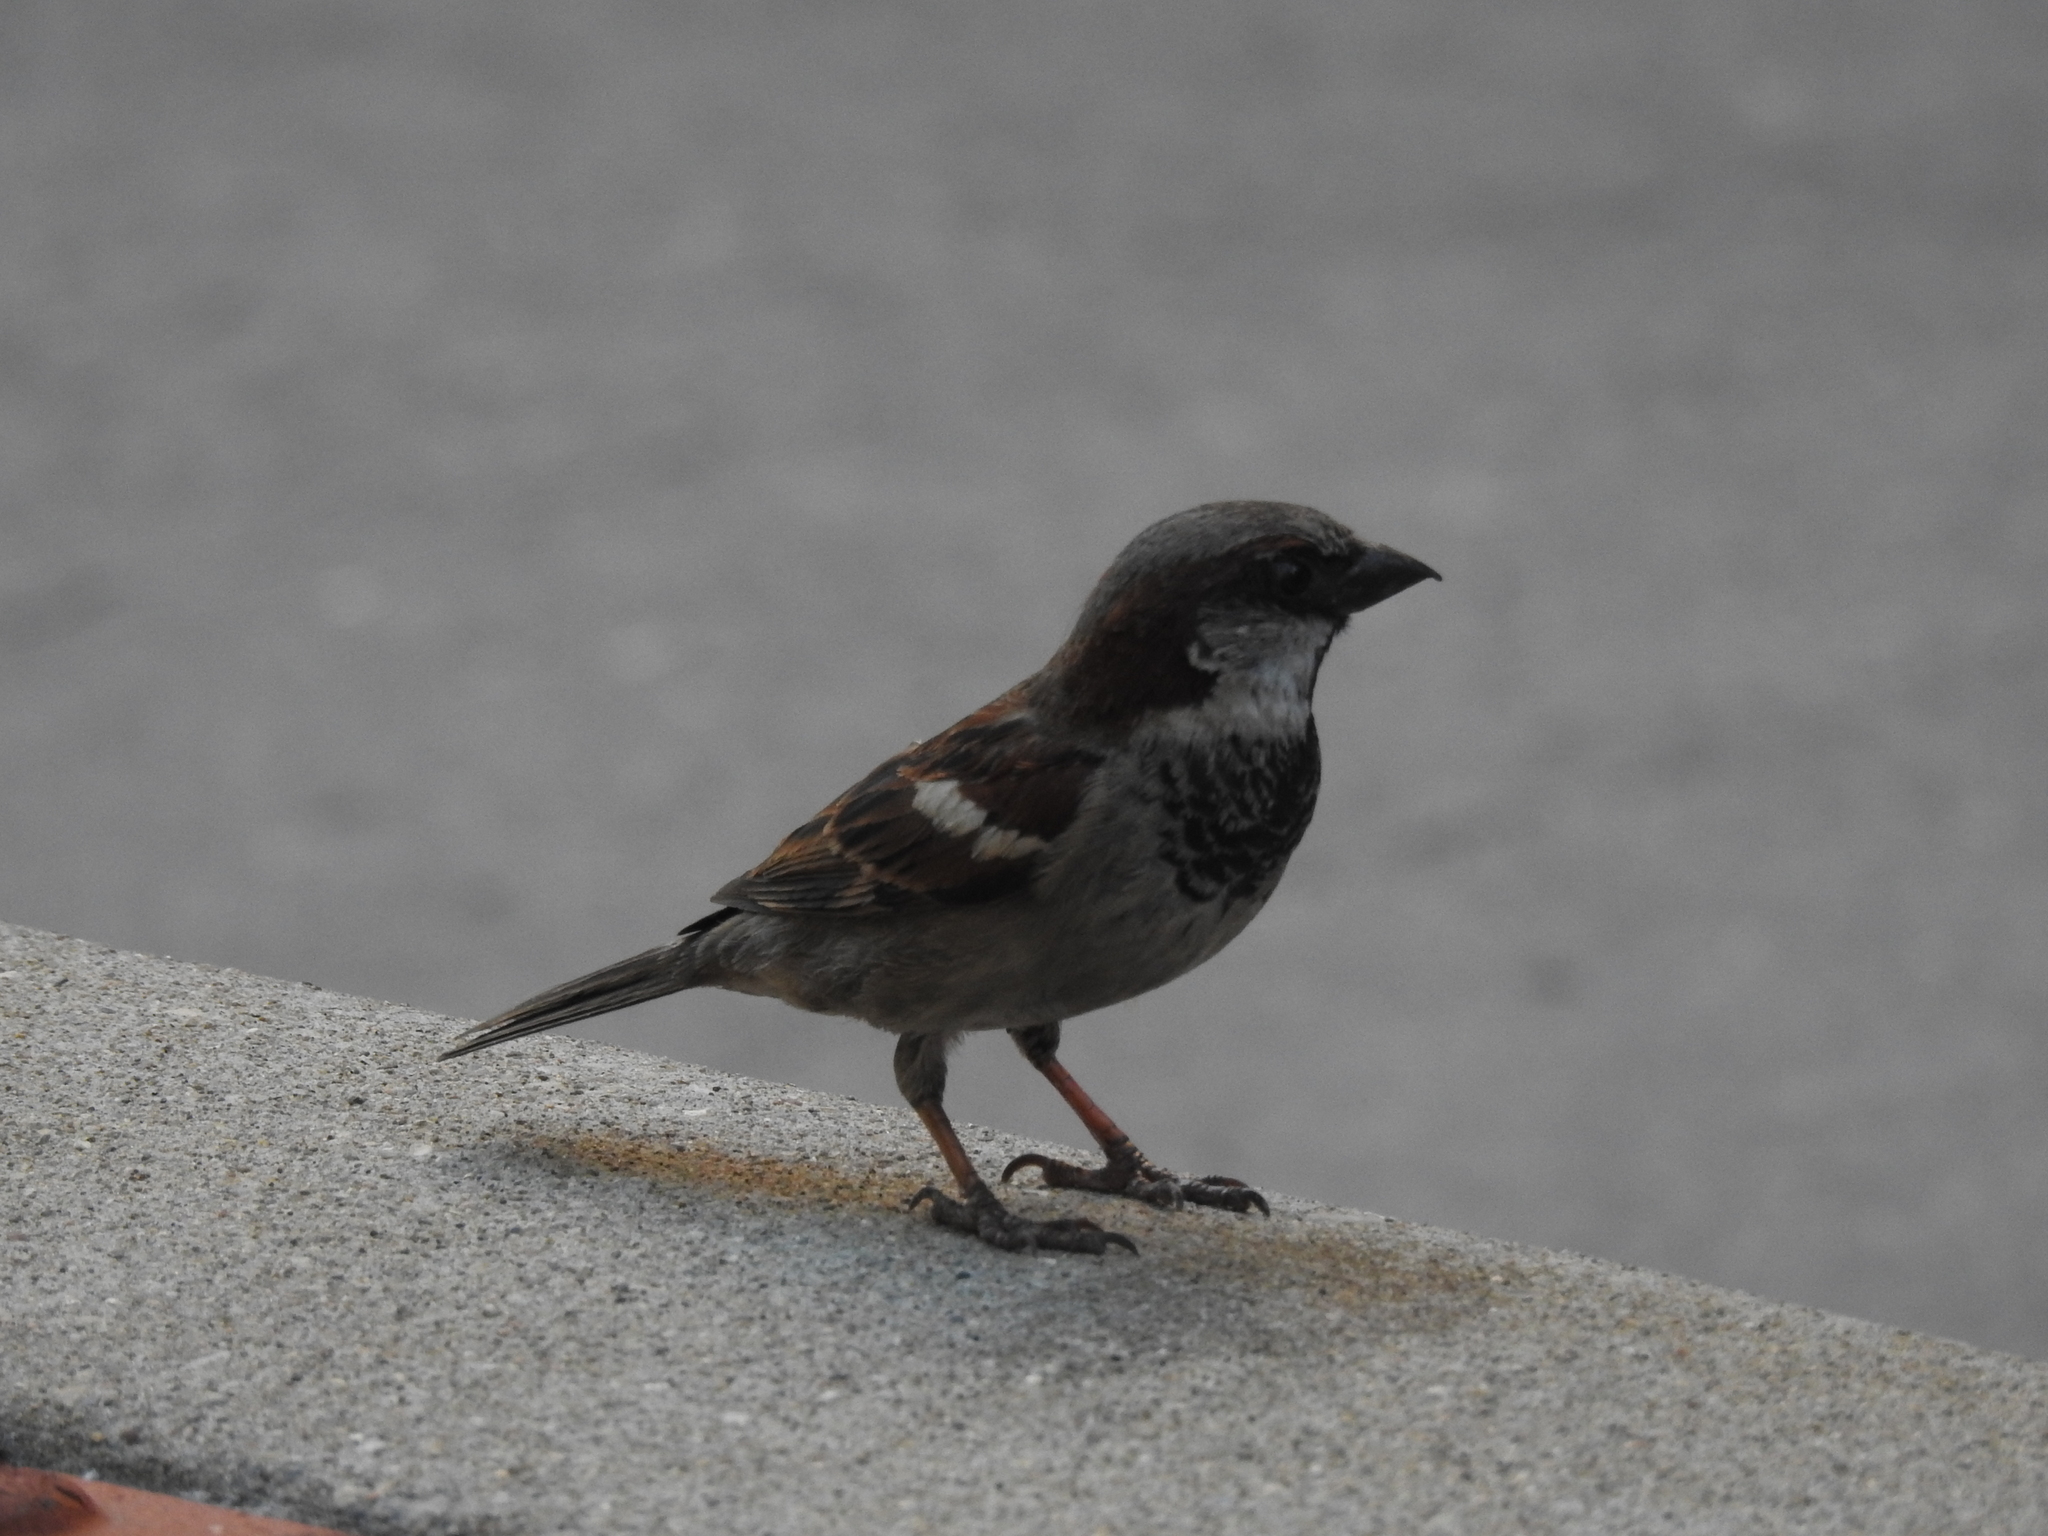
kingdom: Animalia
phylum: Chordata
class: Aves
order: Passeriformes
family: Passeridae
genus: Passer
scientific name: Passer domesticus
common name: House sparrow
